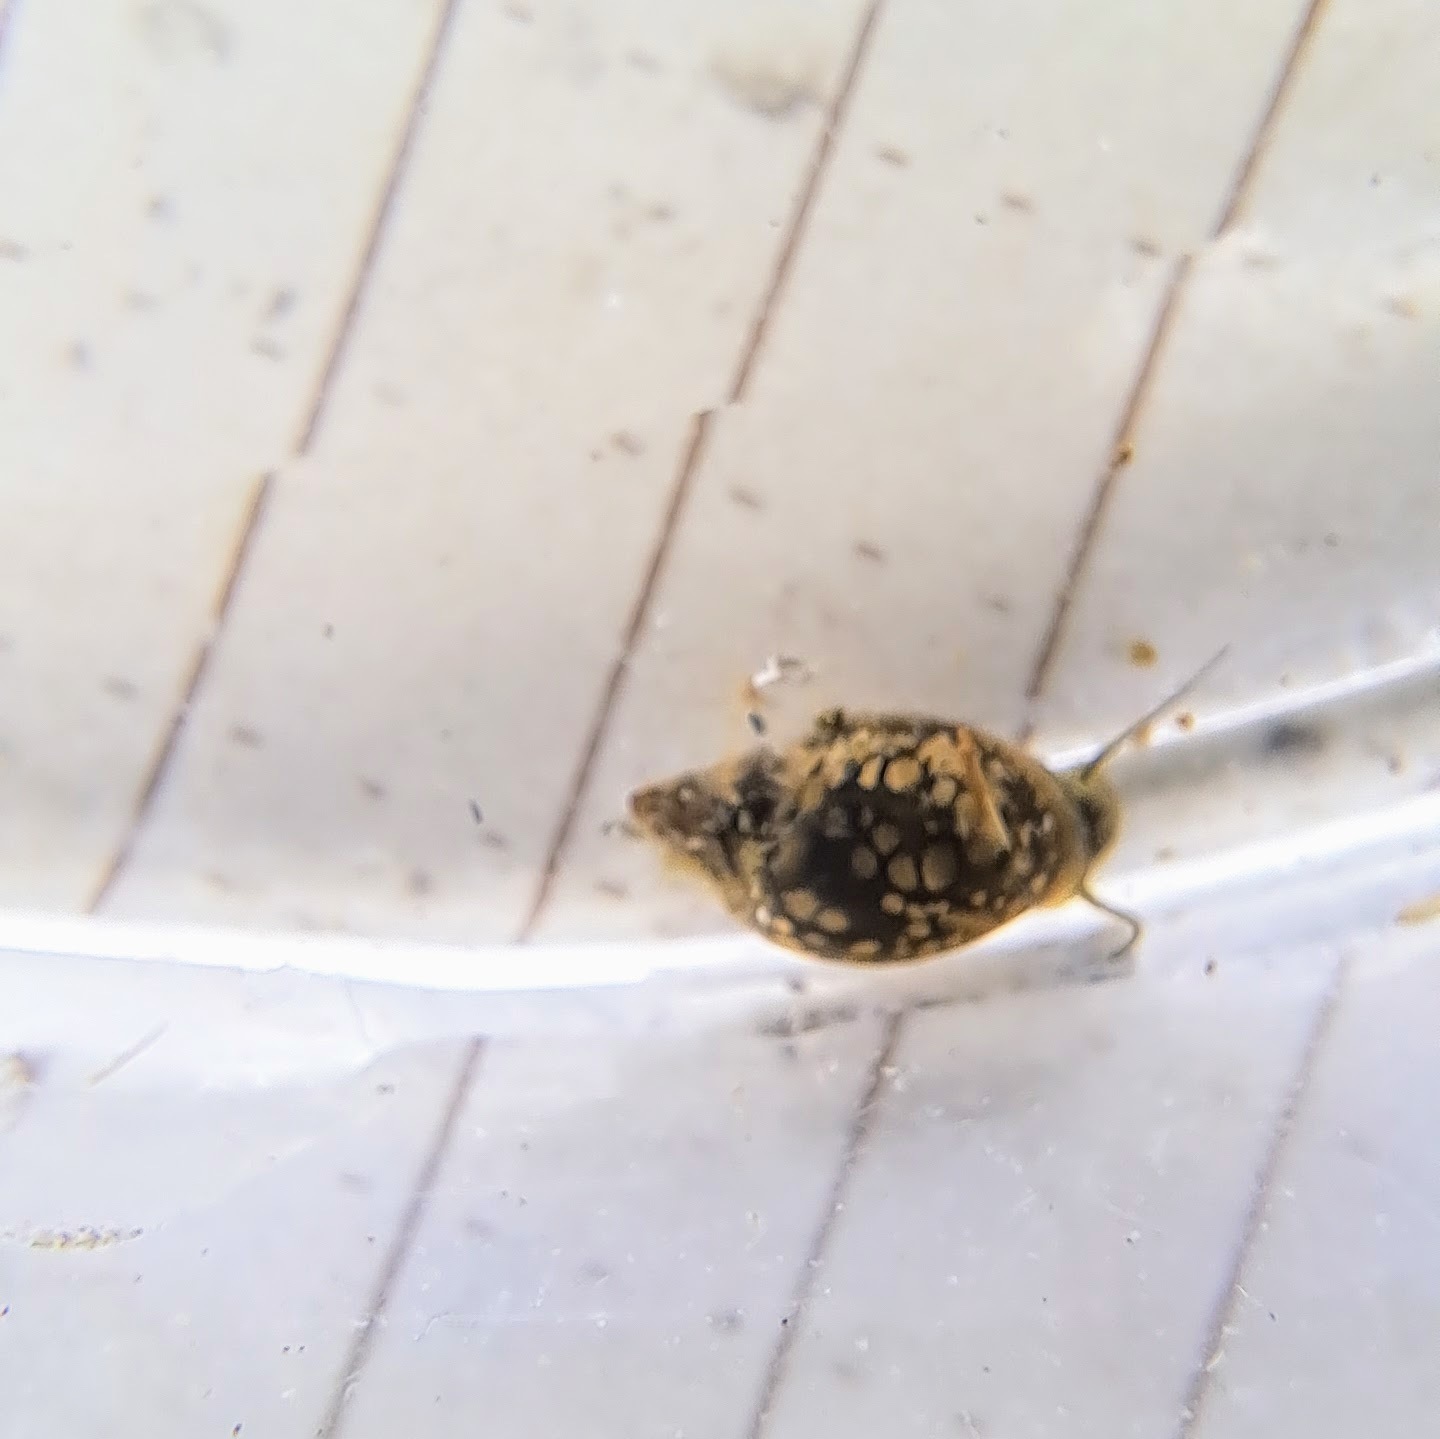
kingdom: Animalia
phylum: Mollusca
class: Gastropoda
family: Physidae
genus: Physella
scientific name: Physella
